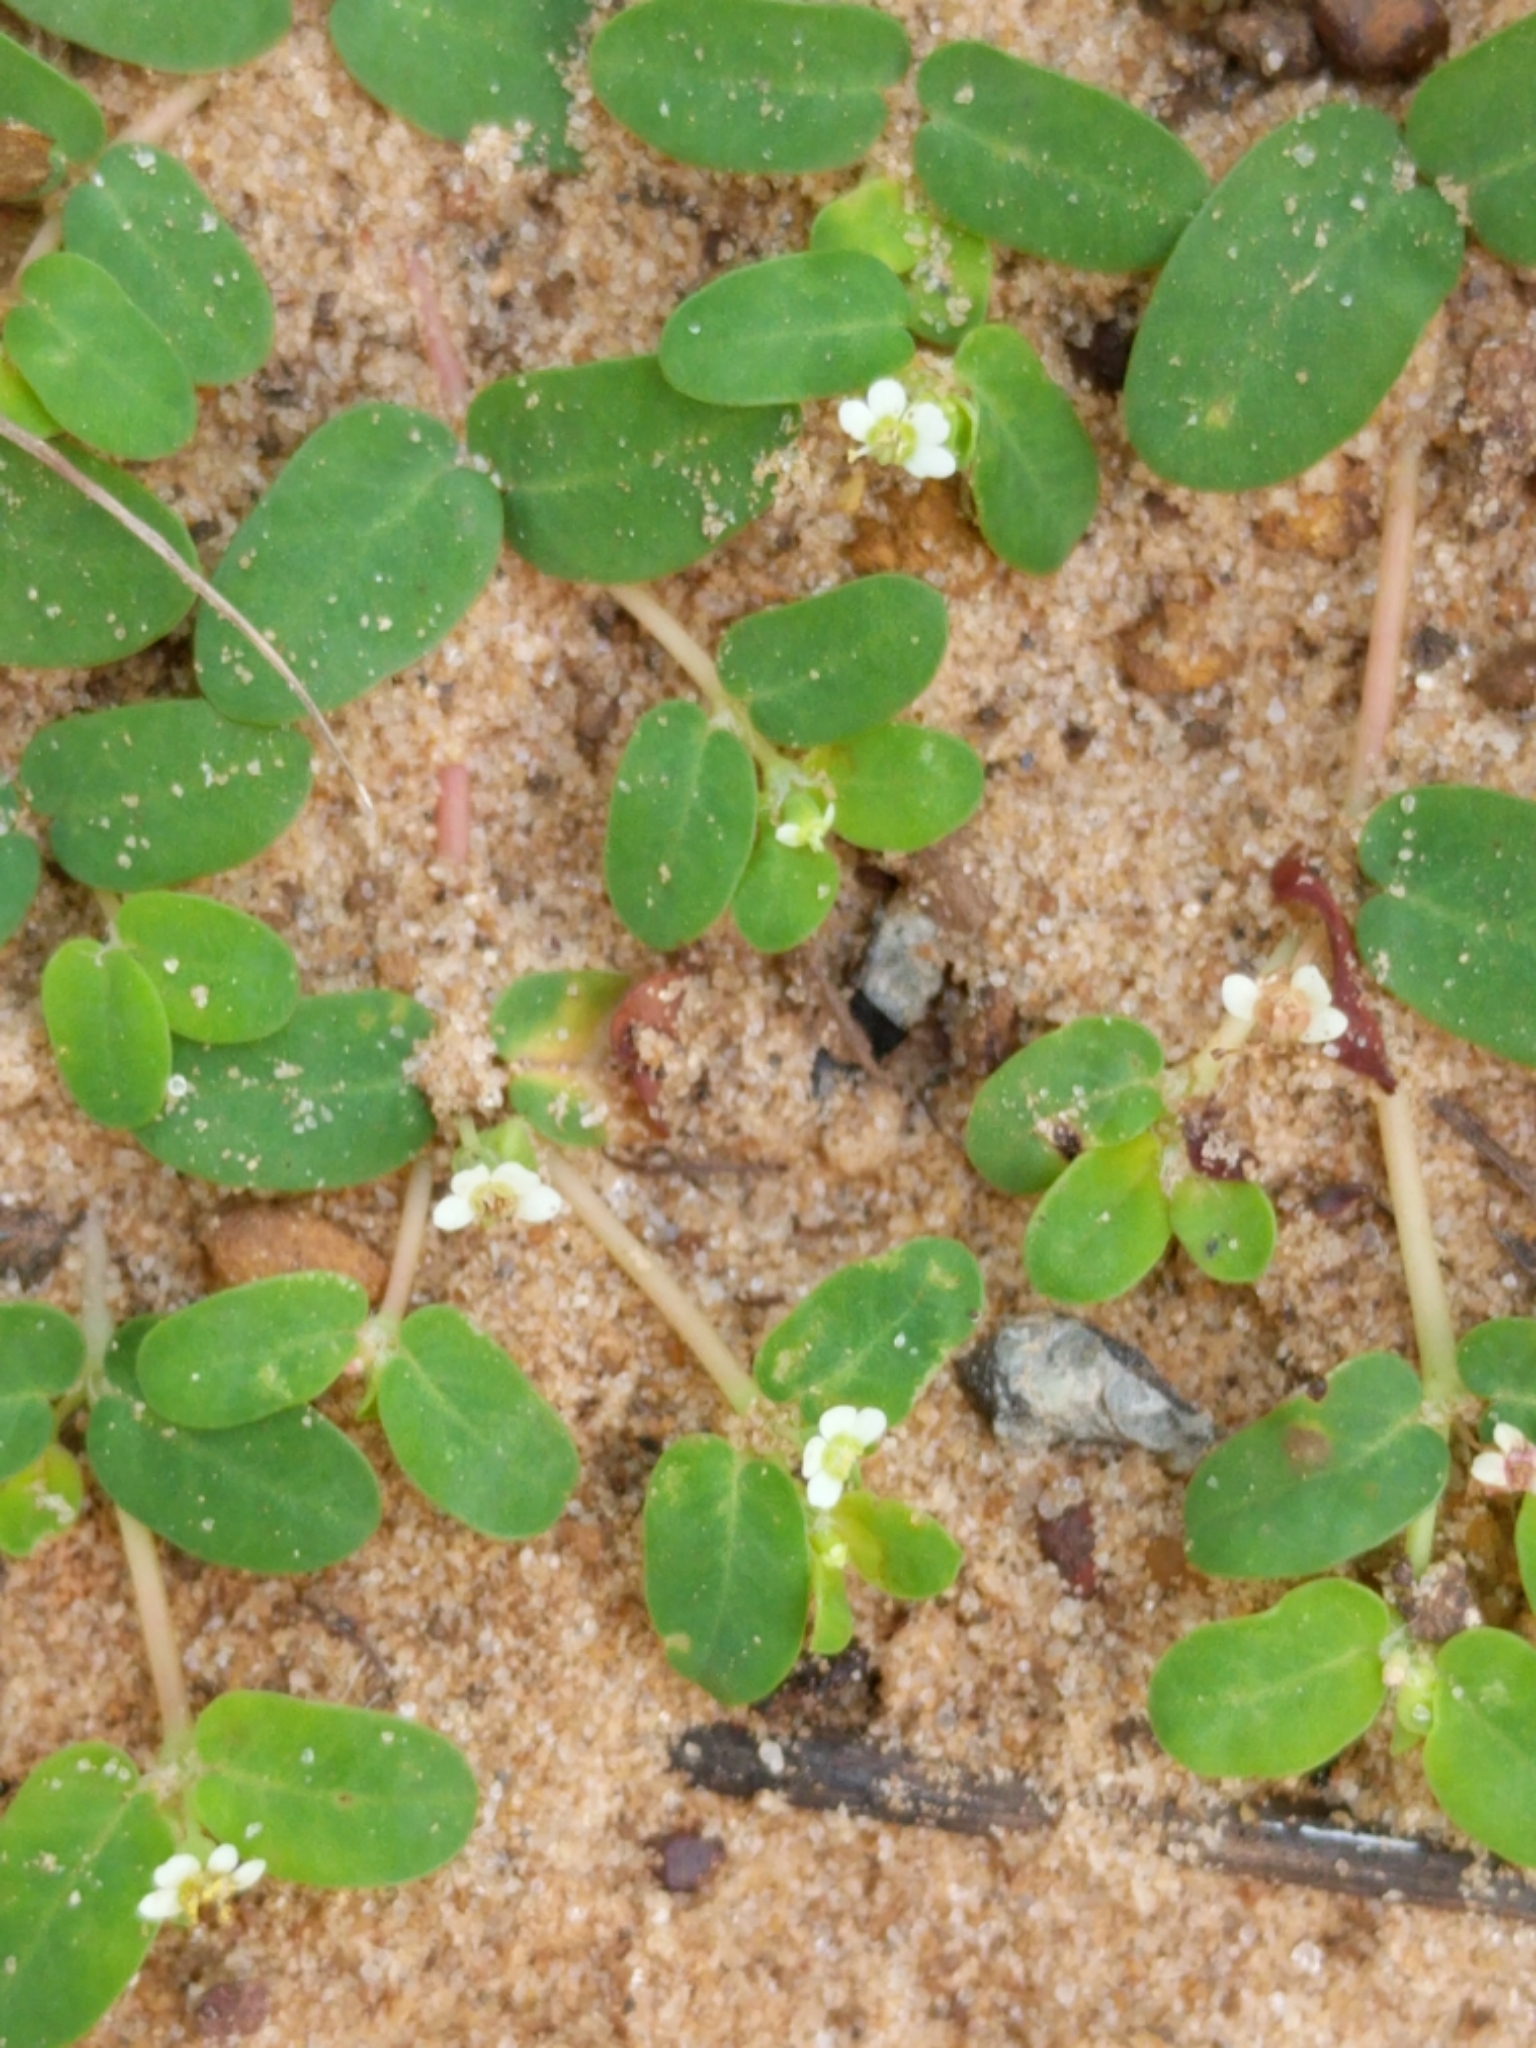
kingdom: Plantae
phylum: Tracheophyta
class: Magnoliopsida
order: Malpighiales
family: Euphorbiaceae
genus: Euphorbia
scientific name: Euphorbia cordifolia
